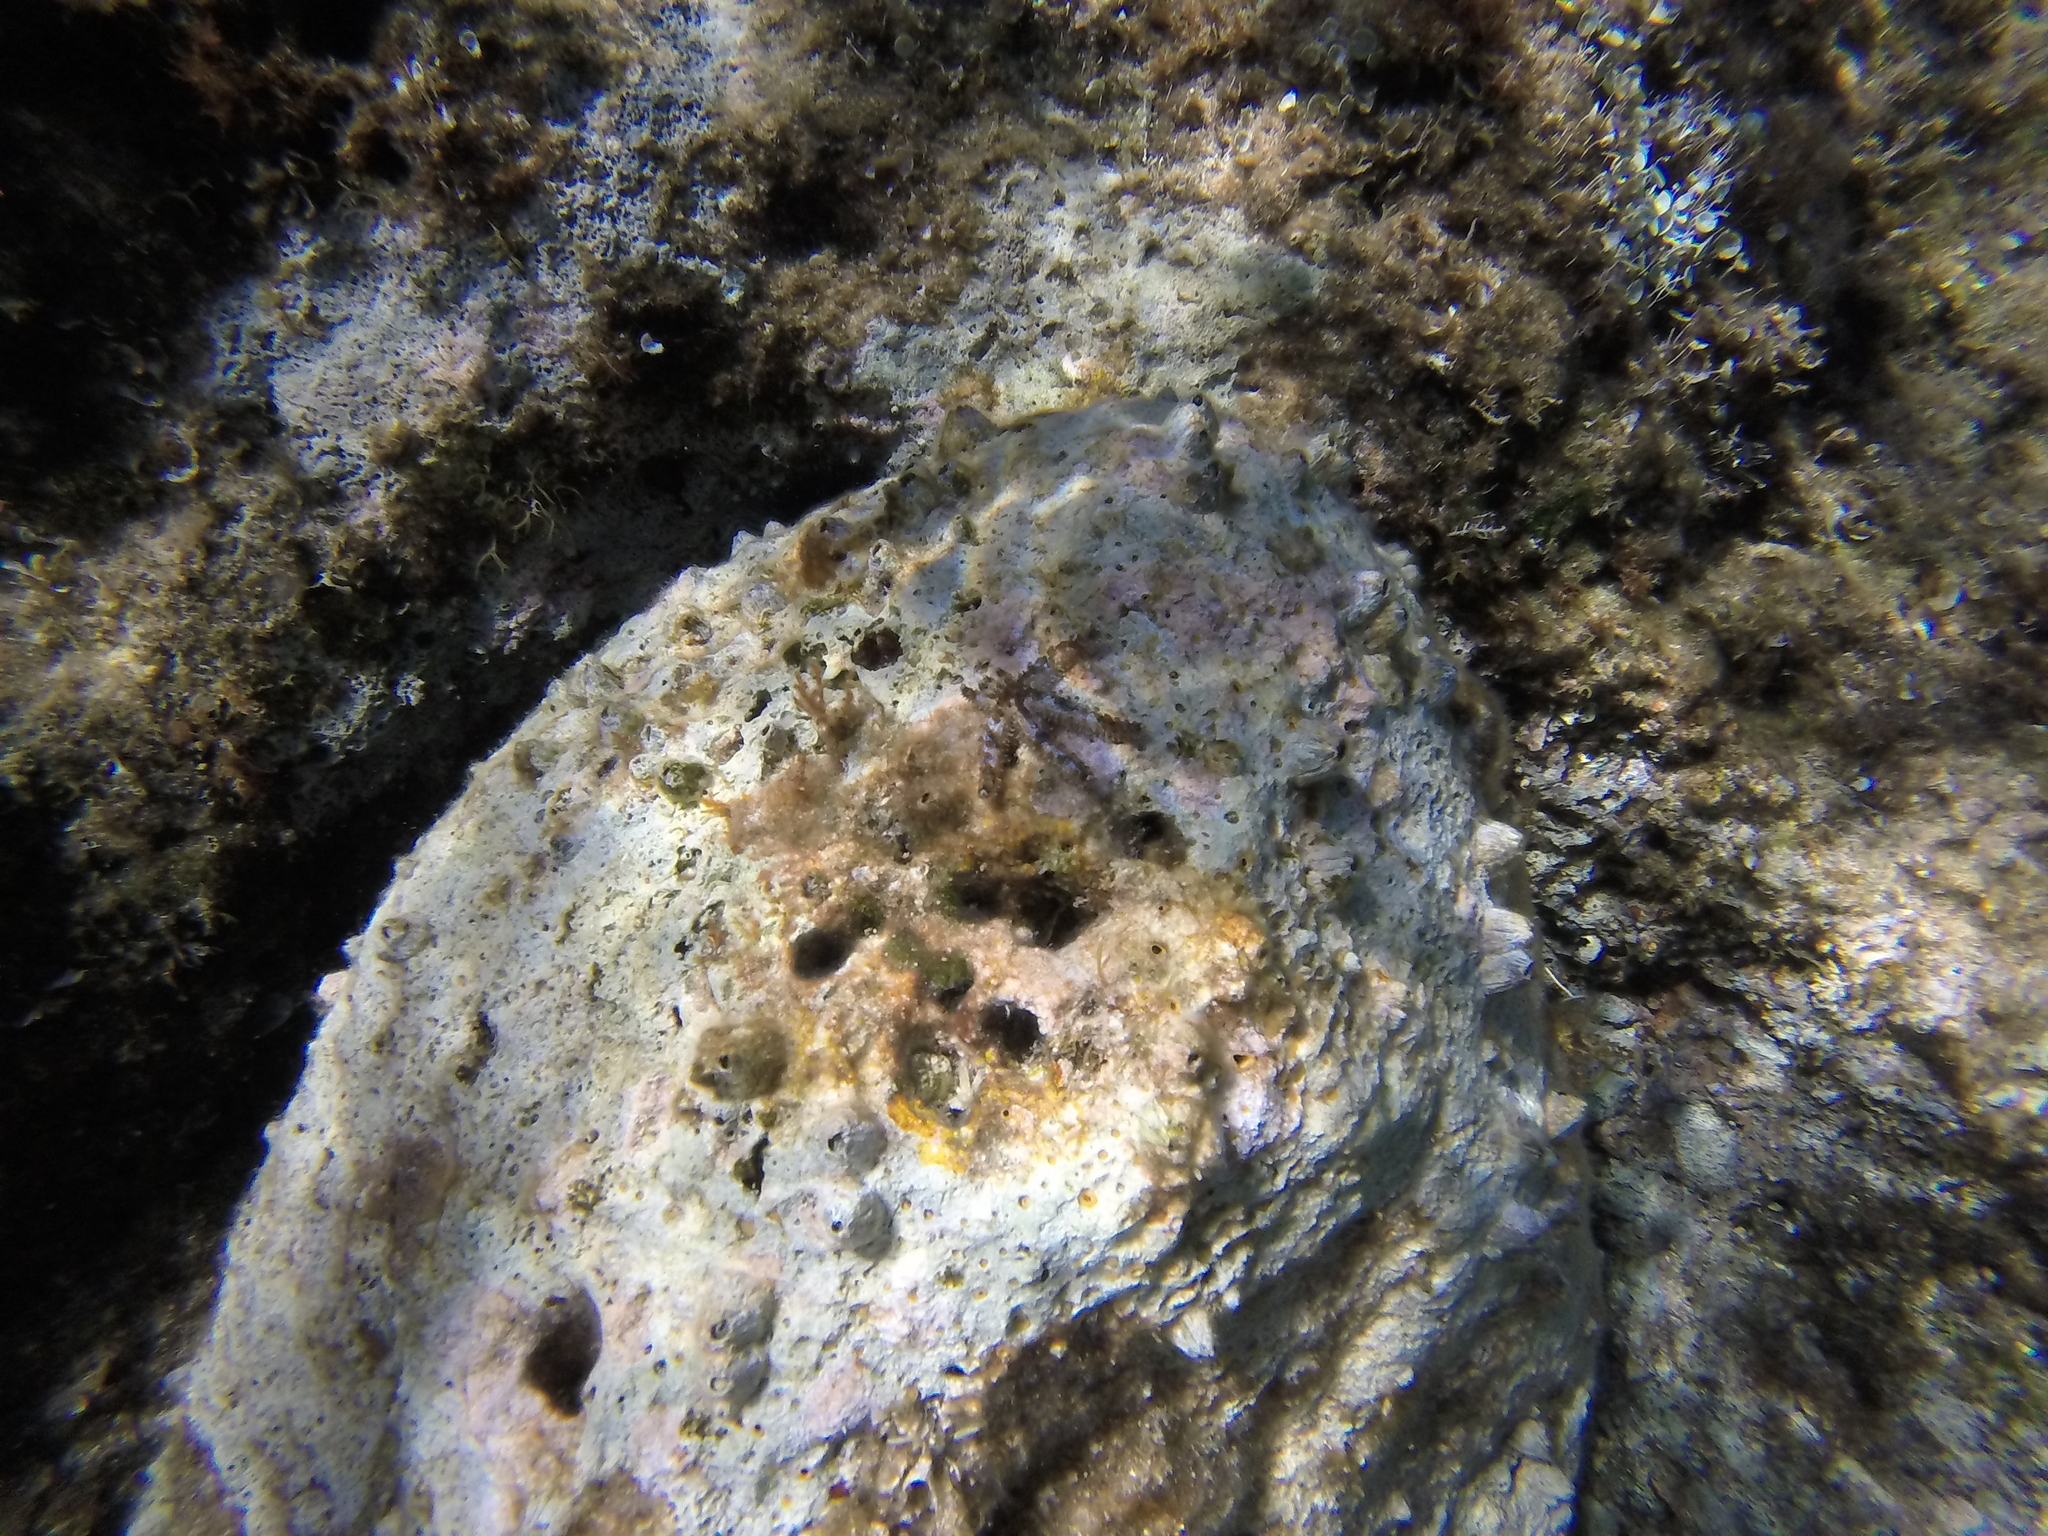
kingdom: Animalia
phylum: Echinodermata
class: Asteroidea
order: Forcipulatida
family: Asteriidae
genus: Coscinasterias
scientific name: Coscinasterias tenuispina
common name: Blue spiny starfish
